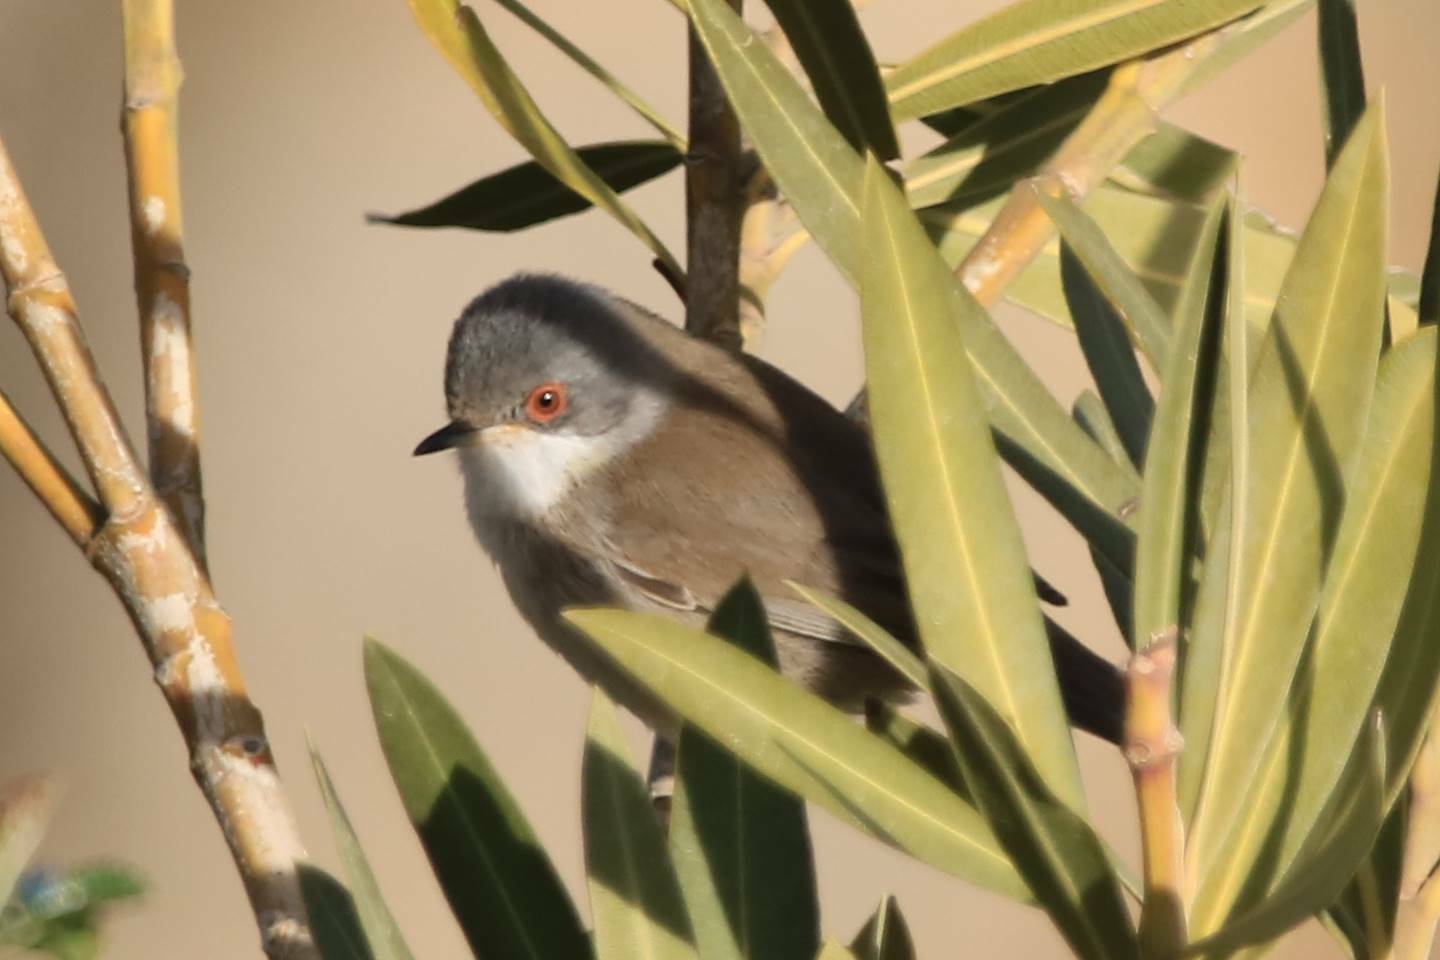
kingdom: Animalia
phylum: Chordata
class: Aves
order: Passeriformes
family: Sylviidae
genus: Curruca
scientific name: Curruca melanocephala
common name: Sardinian warbler
